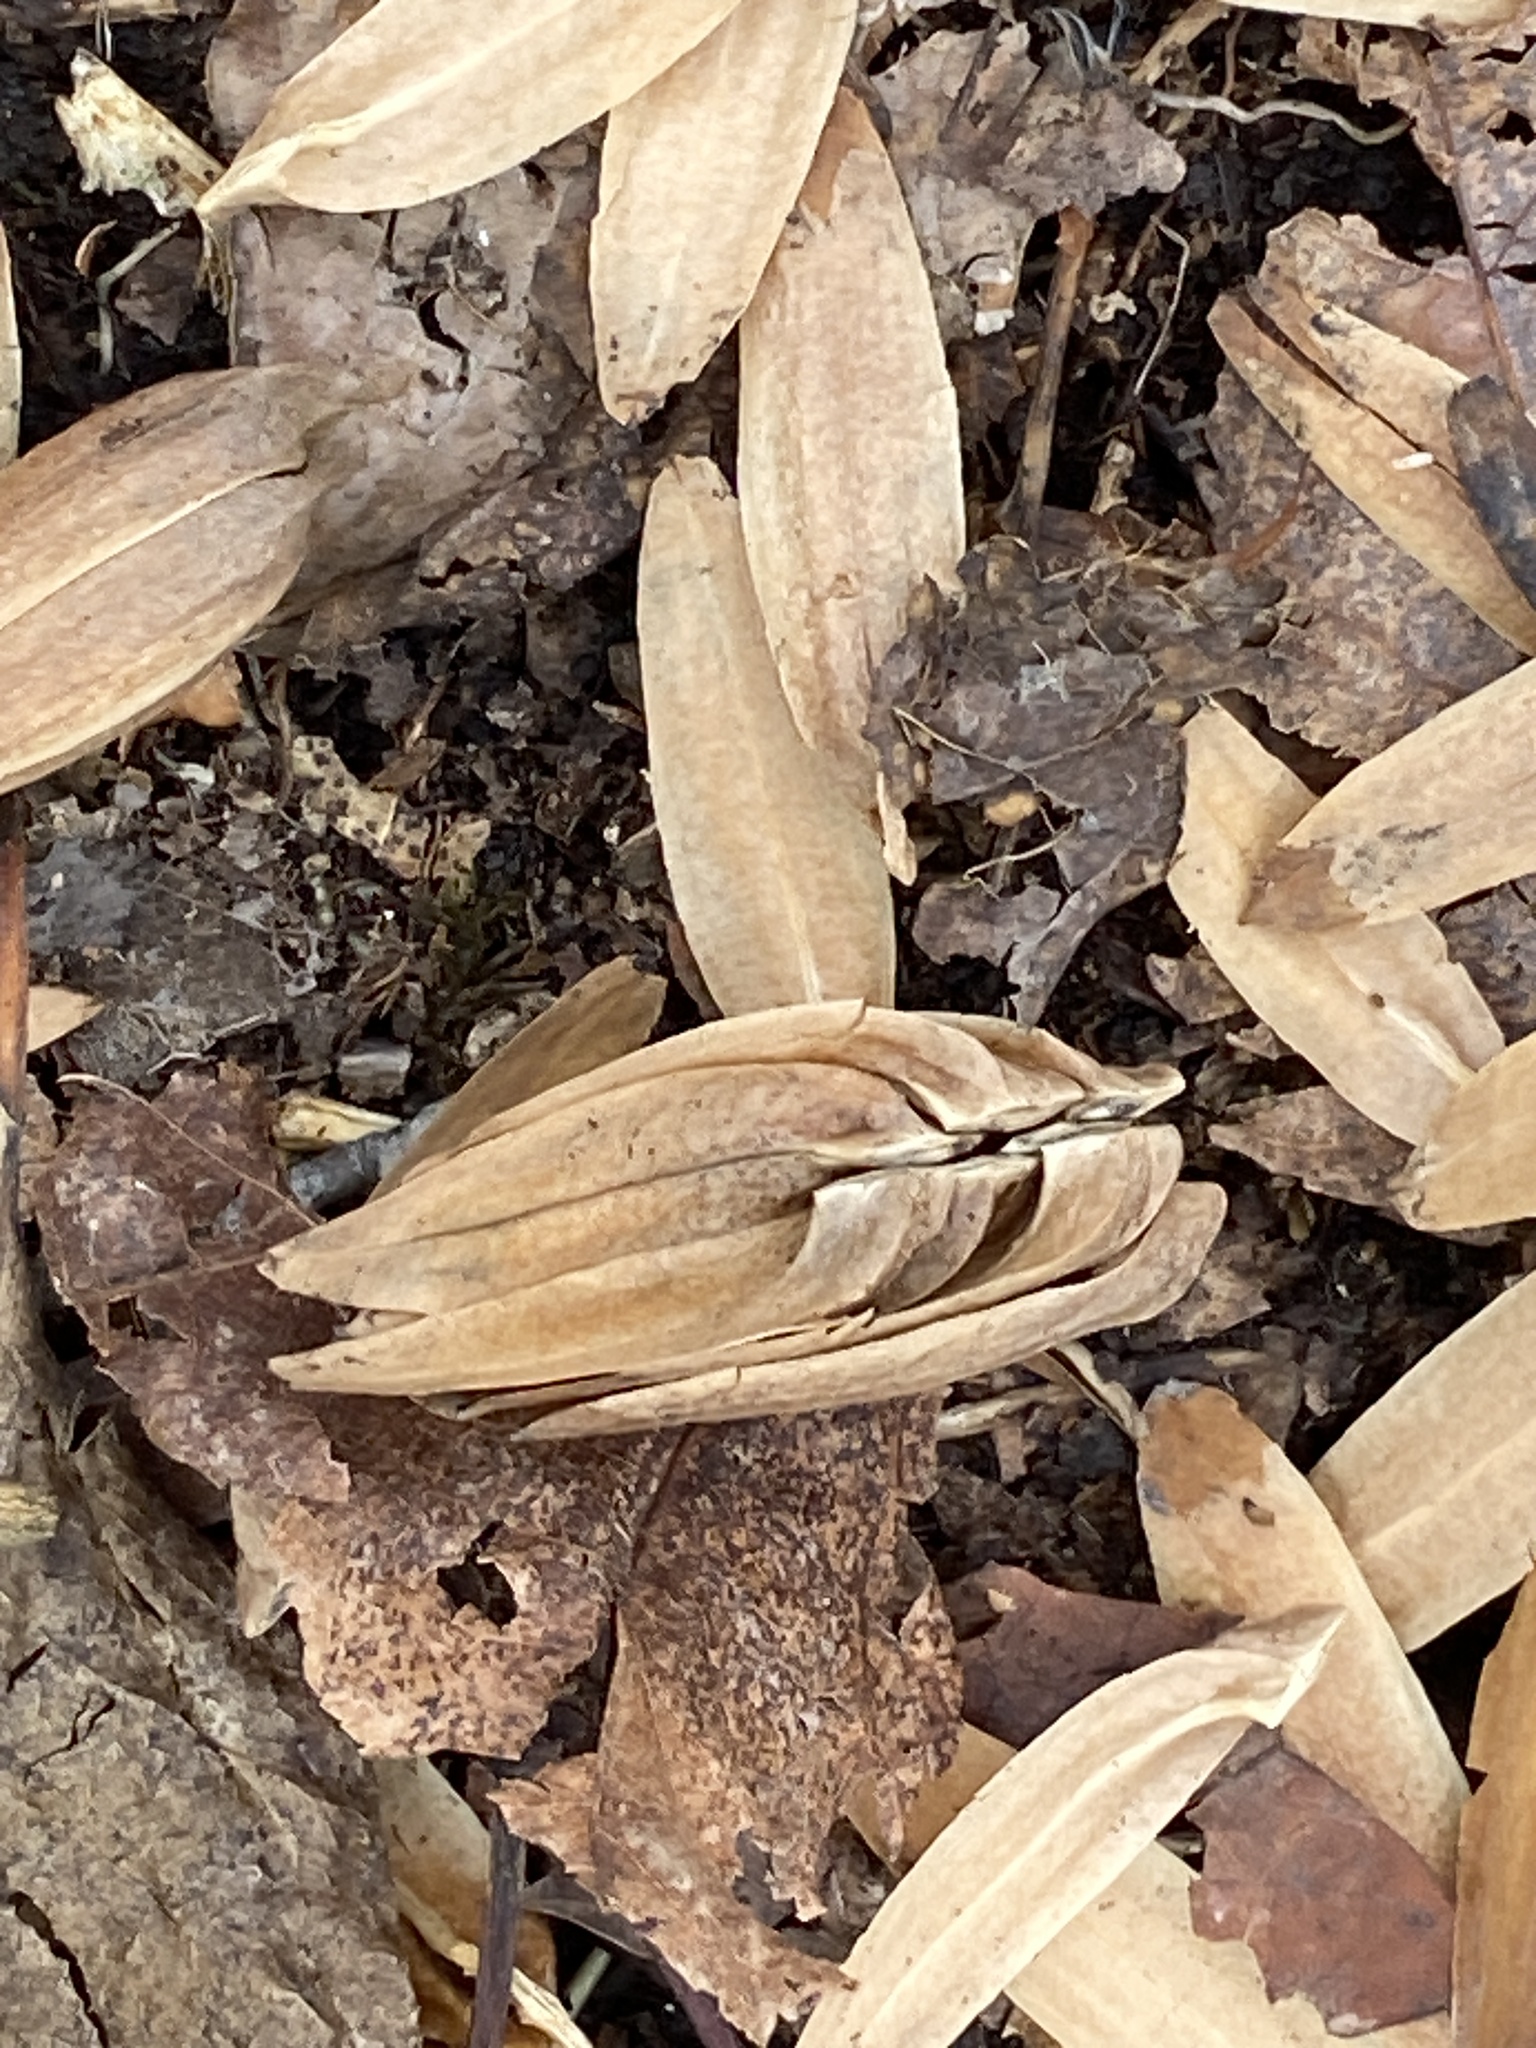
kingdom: Plantae
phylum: Tracheophyta
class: Magnoliopsida
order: Magnoliales
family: Magnoliaceae
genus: Liriodendron
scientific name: Liriodendron tulipifera
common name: Tulip tree
